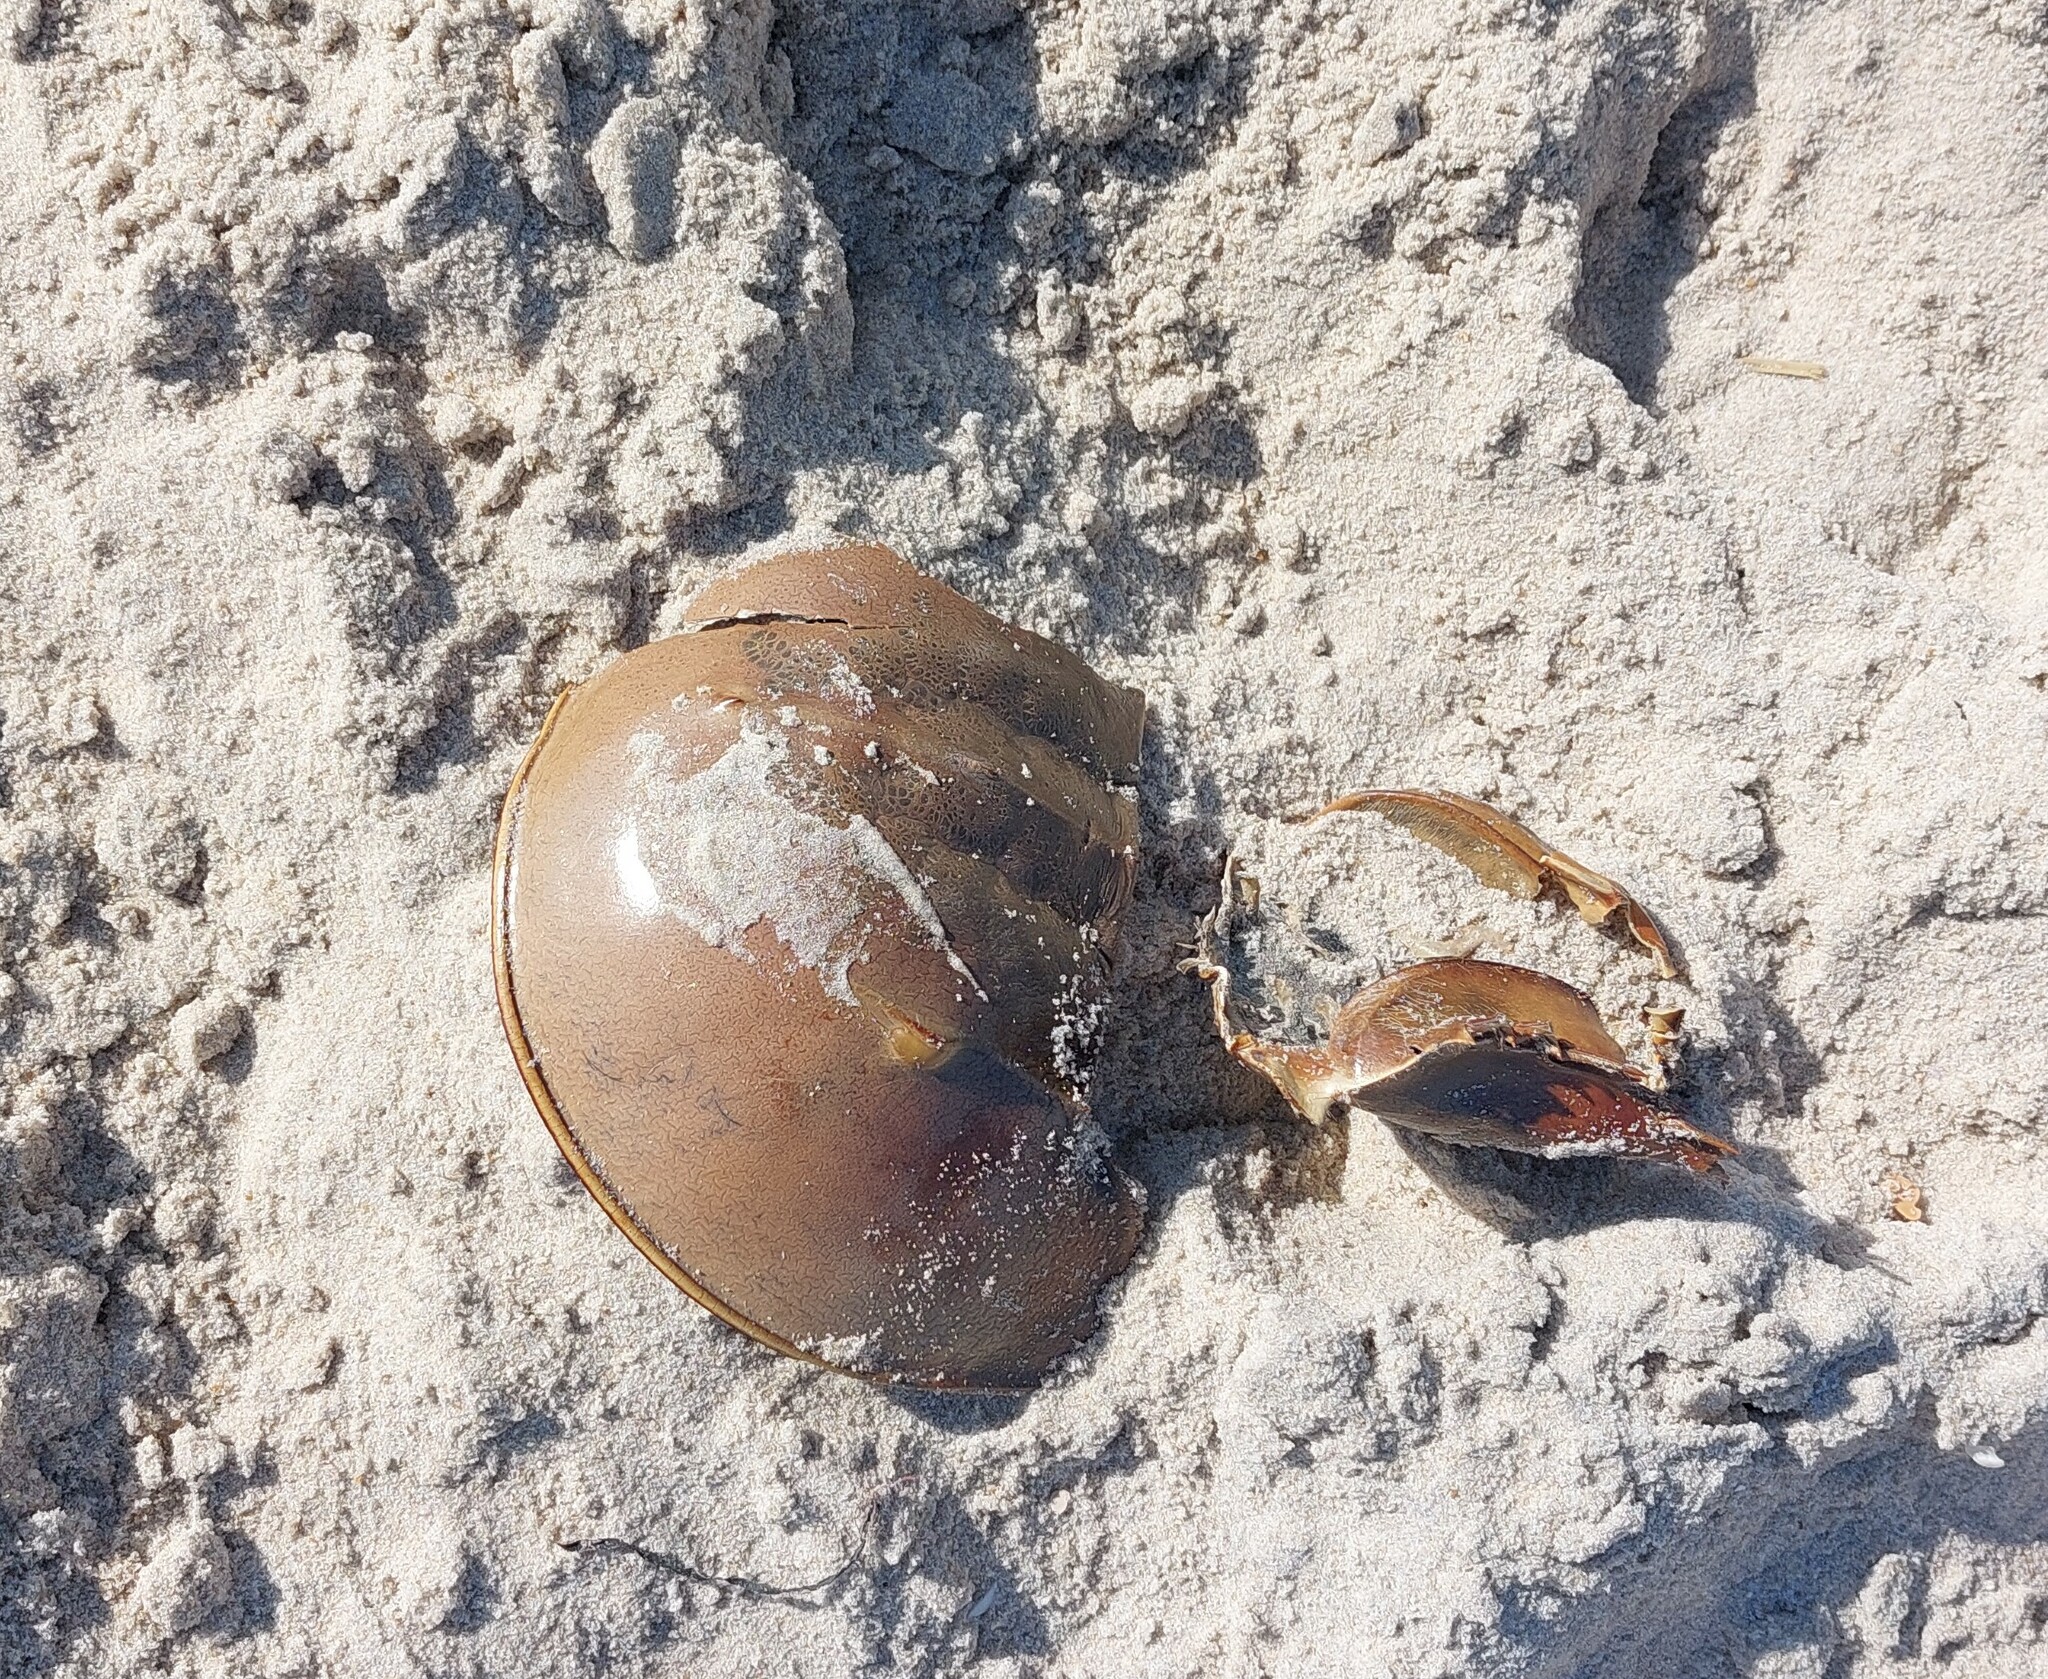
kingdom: Animalia
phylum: Arthropoda
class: Merostomata
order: Xiphosurida
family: Limulidae
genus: Limulus
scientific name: Limulus polyphemus
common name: Horseshoe crab
